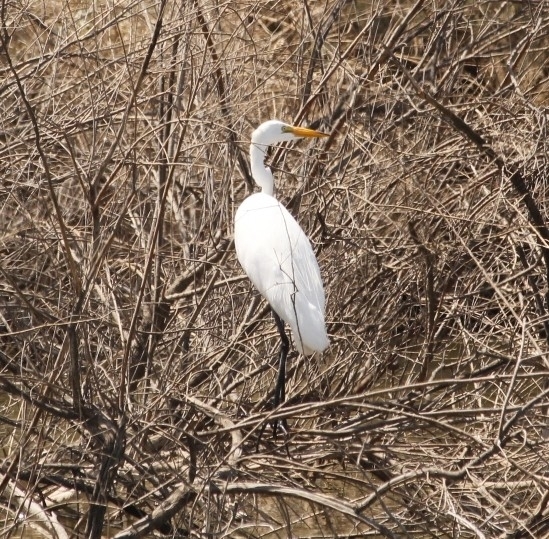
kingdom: Animalia
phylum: Chordata
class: Aves
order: Pelecaniformes
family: Ardeidae
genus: Ardea
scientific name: Ardea alba
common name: Great egret
